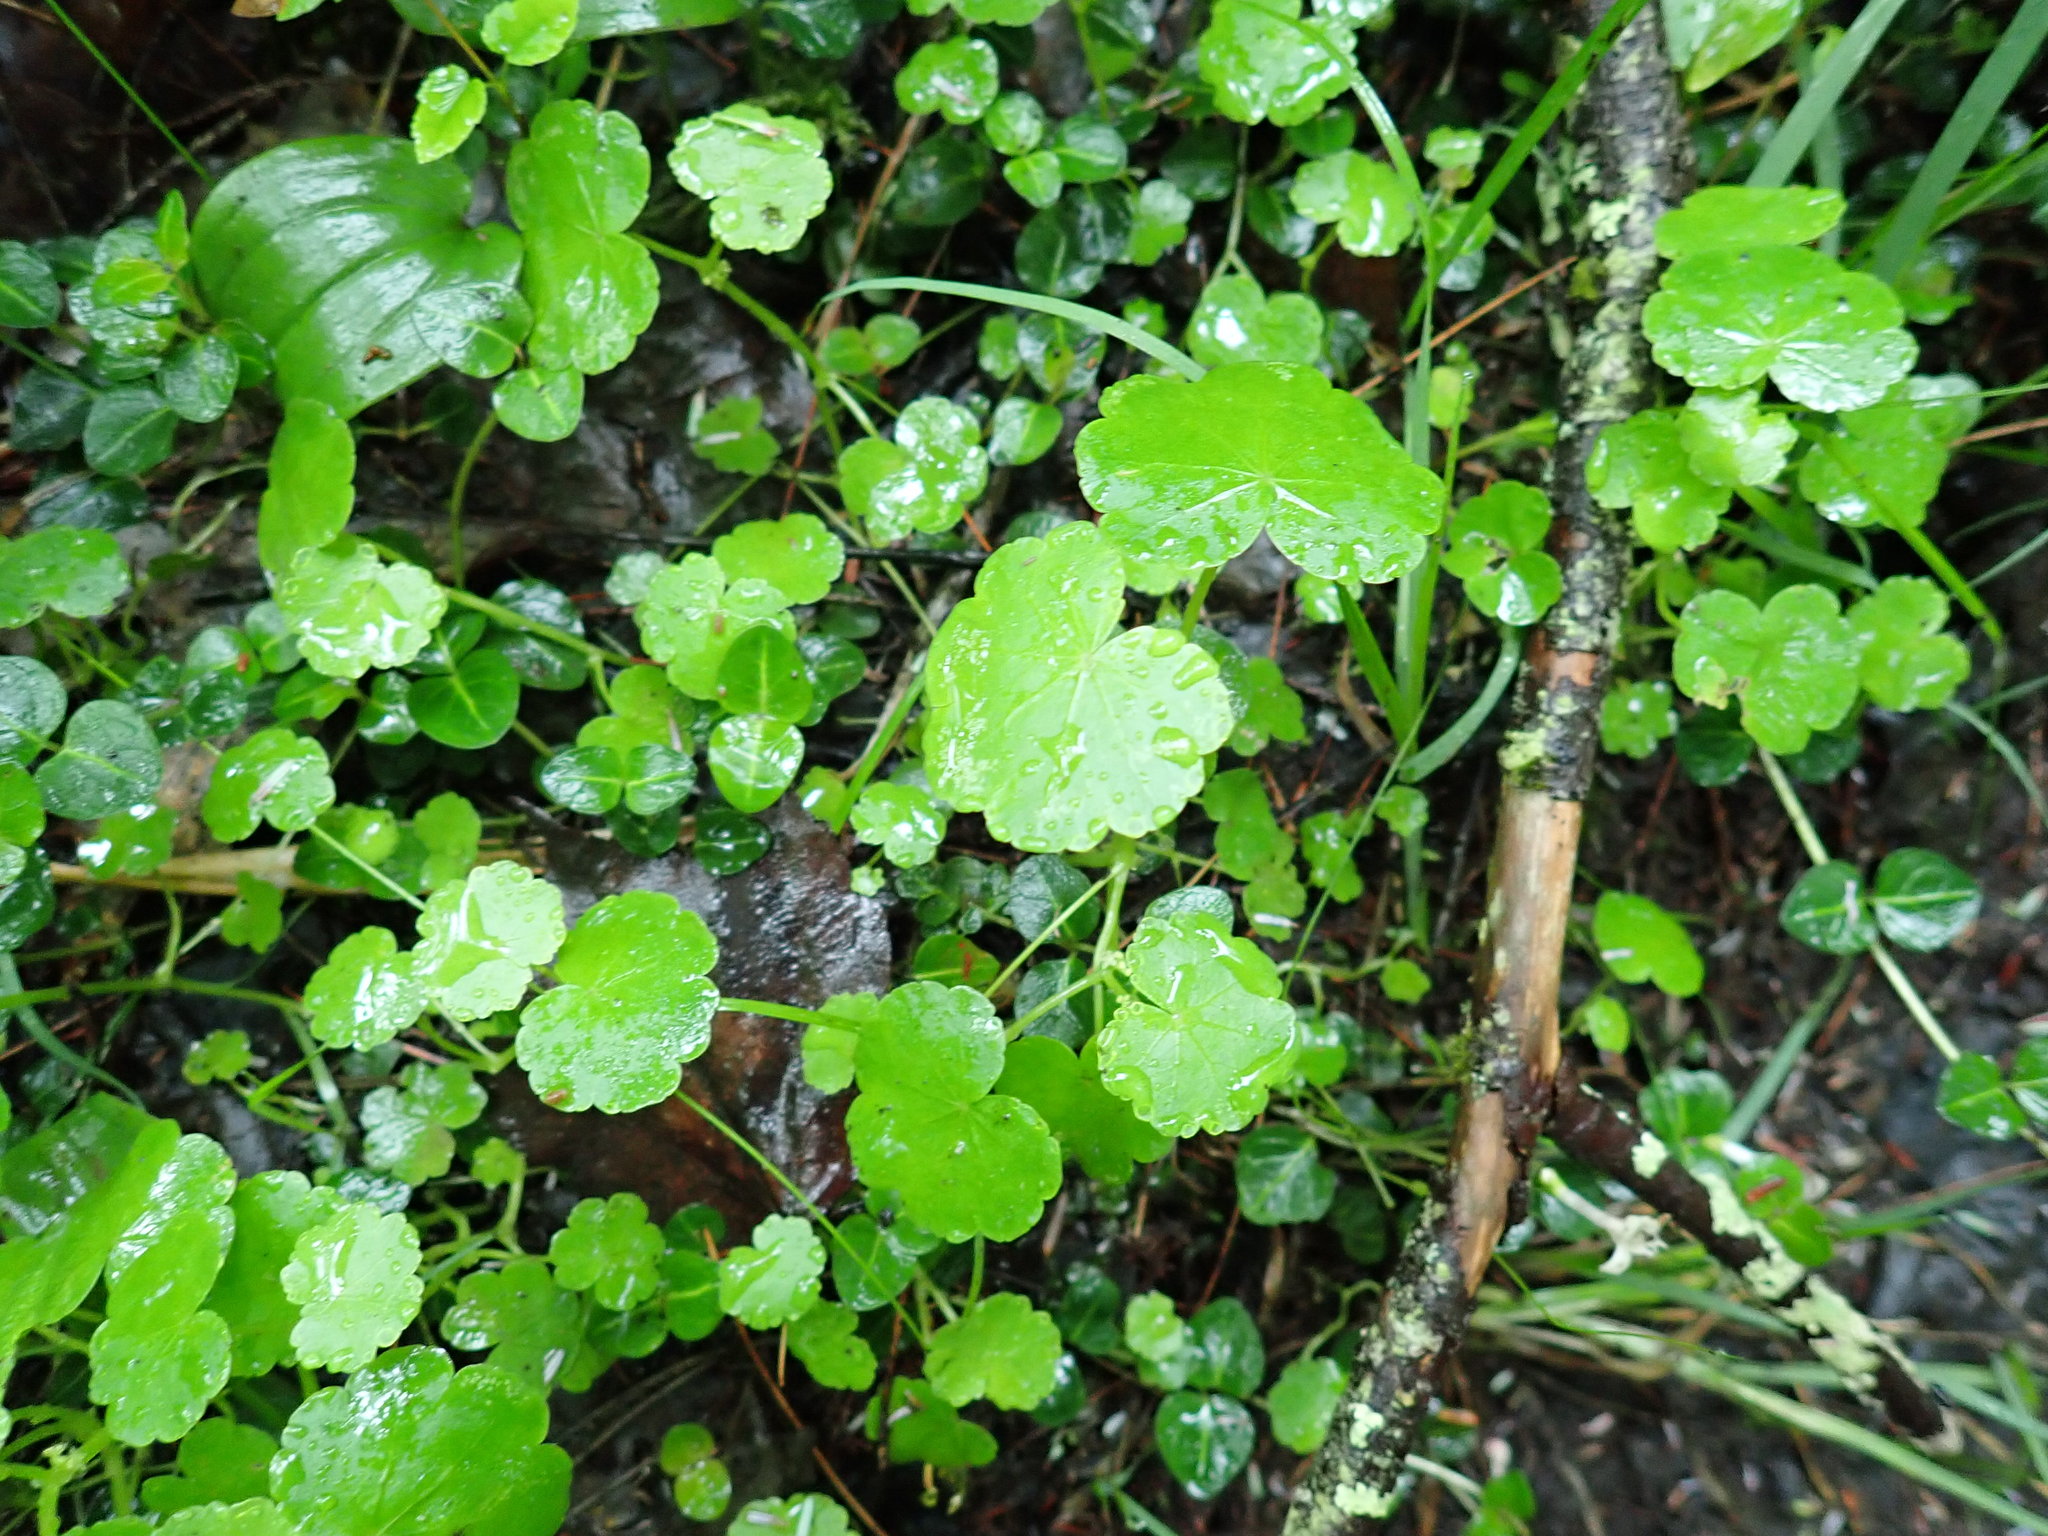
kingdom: Plantae
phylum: Tracheophyta
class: Magnoliopsida
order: Apiales
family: Araliaceae
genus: Hydrocotyle
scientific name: Hydrocotyle americana
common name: American water-pennywort
